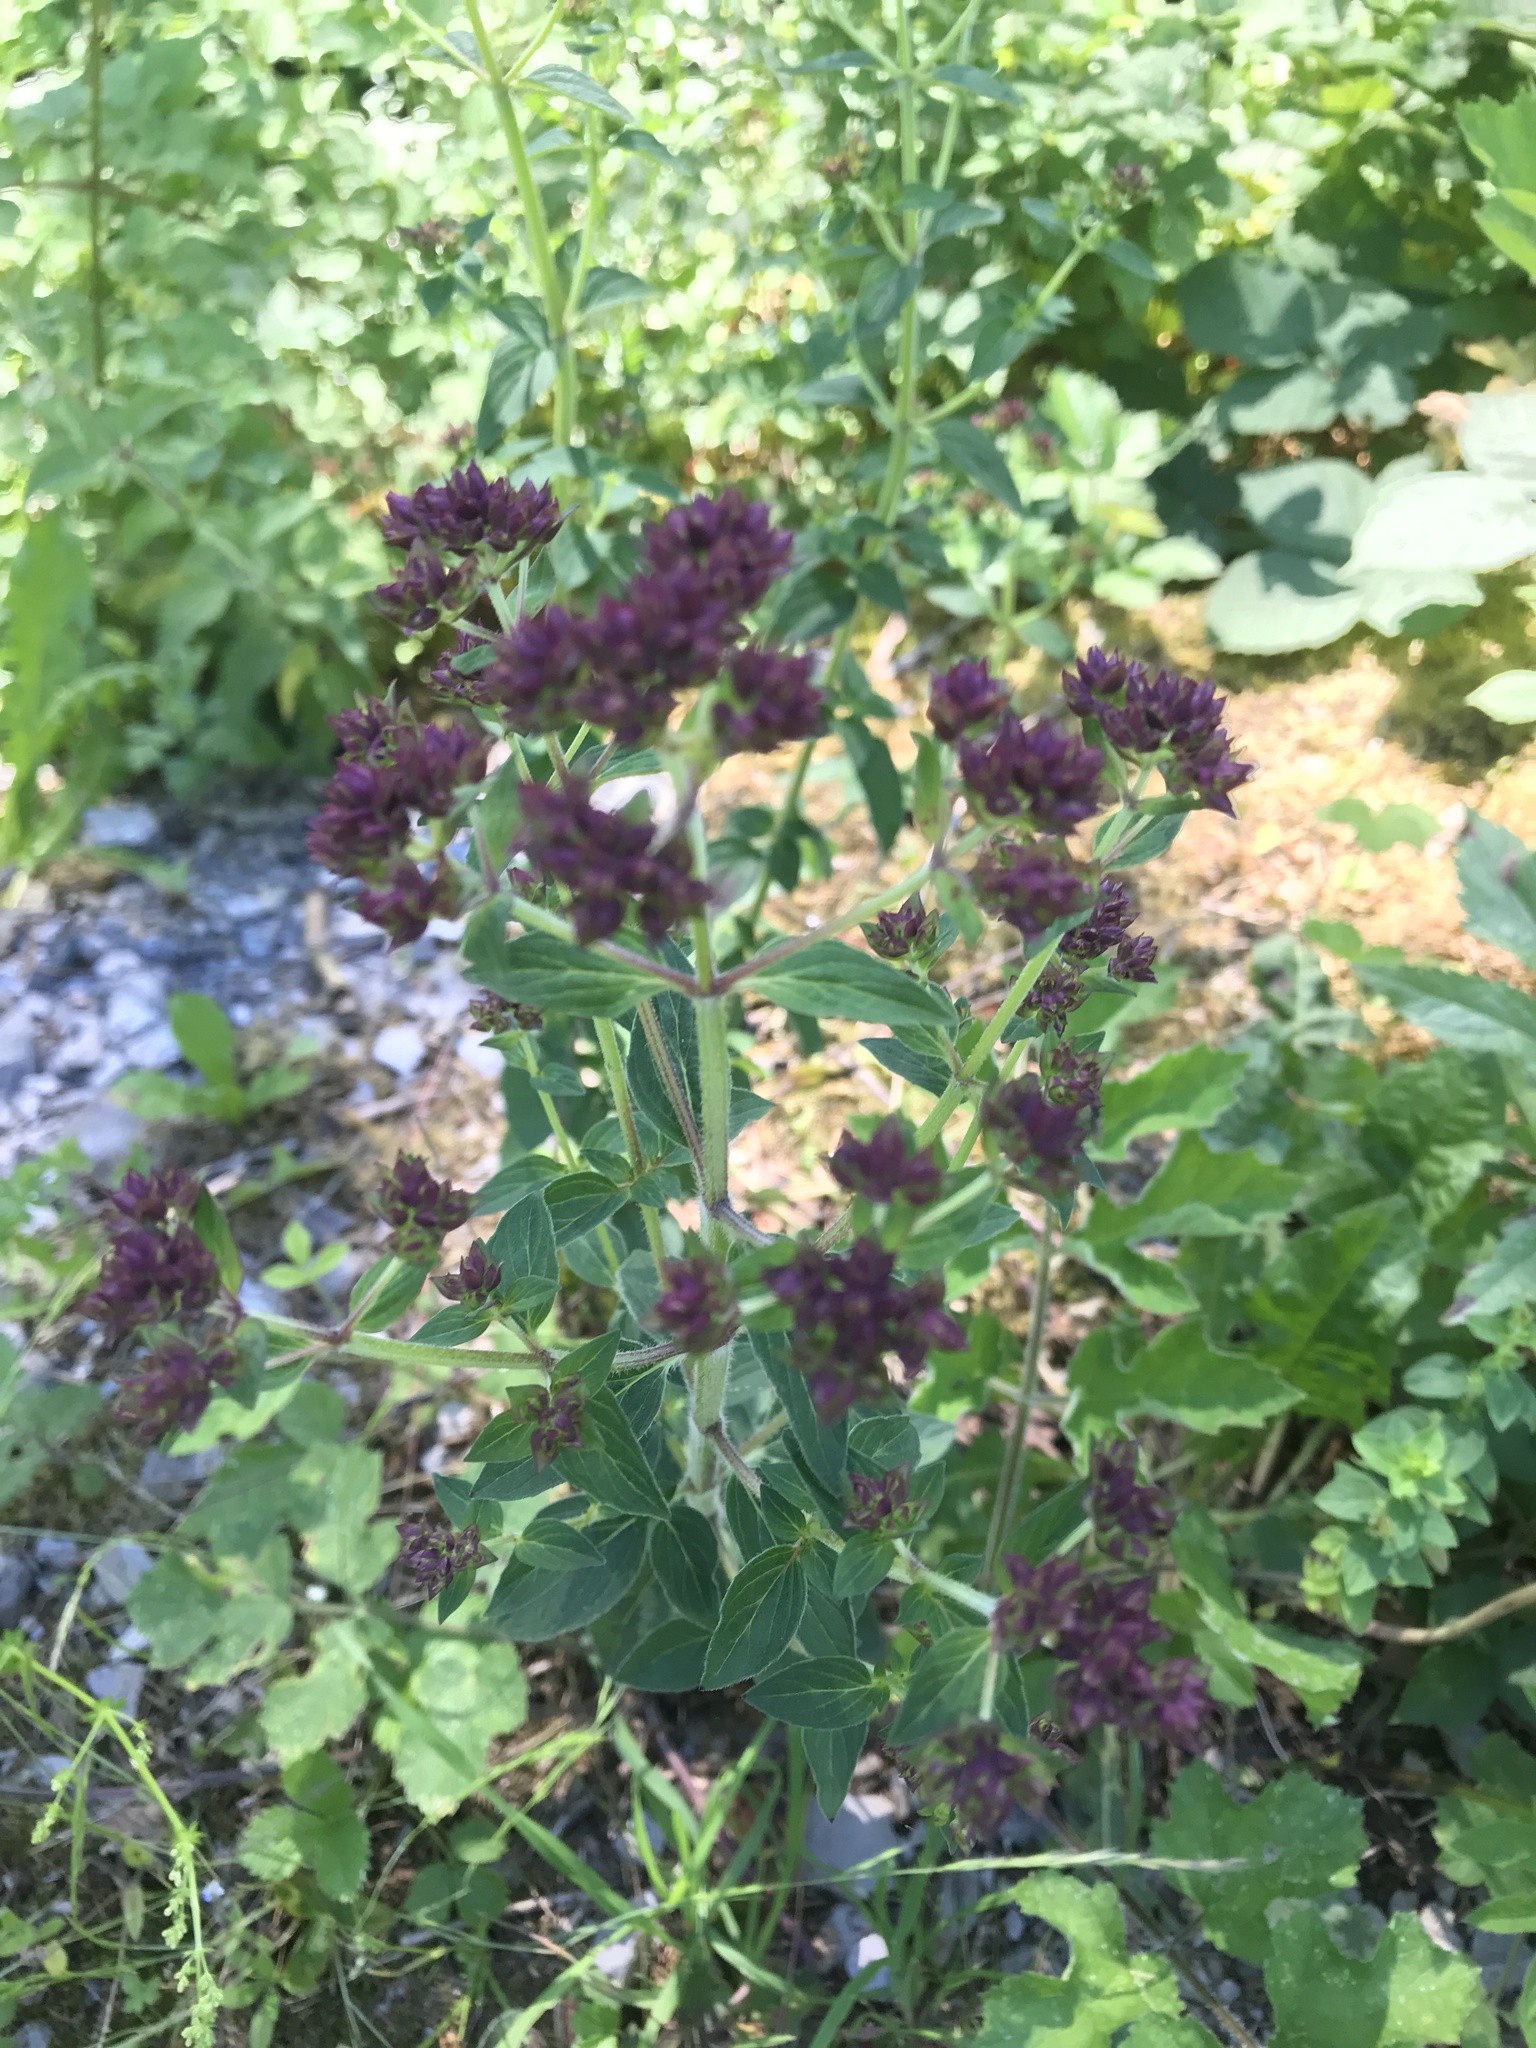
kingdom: Plantae
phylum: Tracheophyta
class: Magnoliopsida
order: Lamiales
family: Lamiaceae
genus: Origanum
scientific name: Origanum vulgare
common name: Wild marjoram
